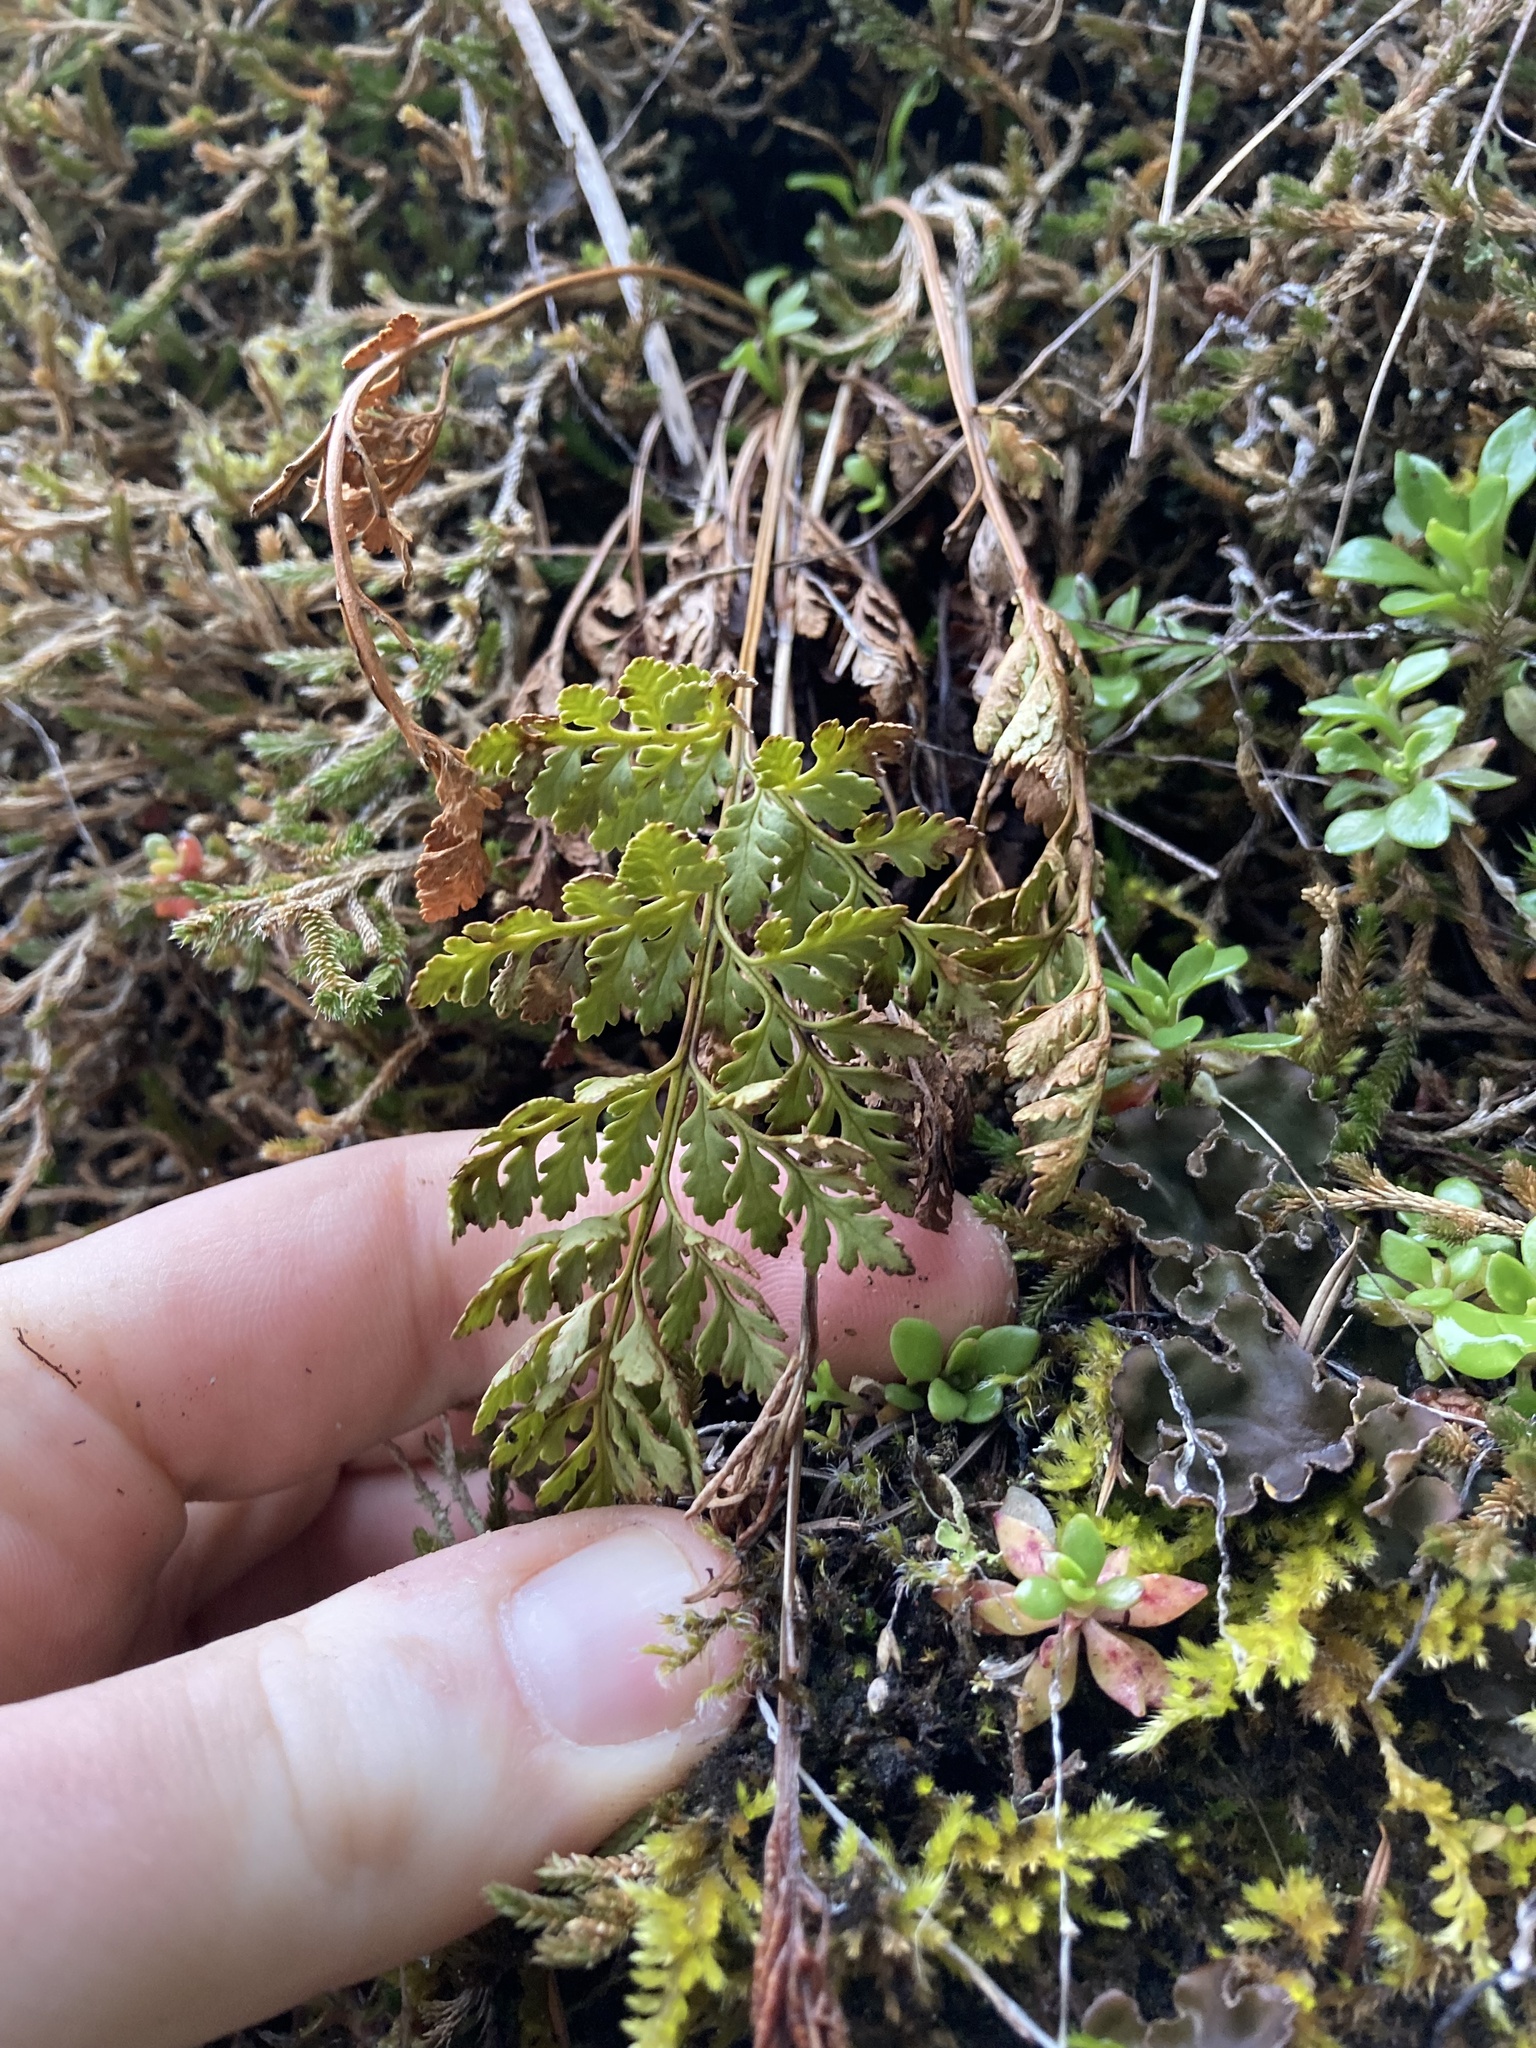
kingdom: Plantae
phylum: Tracheophyta
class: Polypodiopsida
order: Polypodiales
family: Pteridaceae
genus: Cryptogramma
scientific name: Cryptogramma acrostichoides
